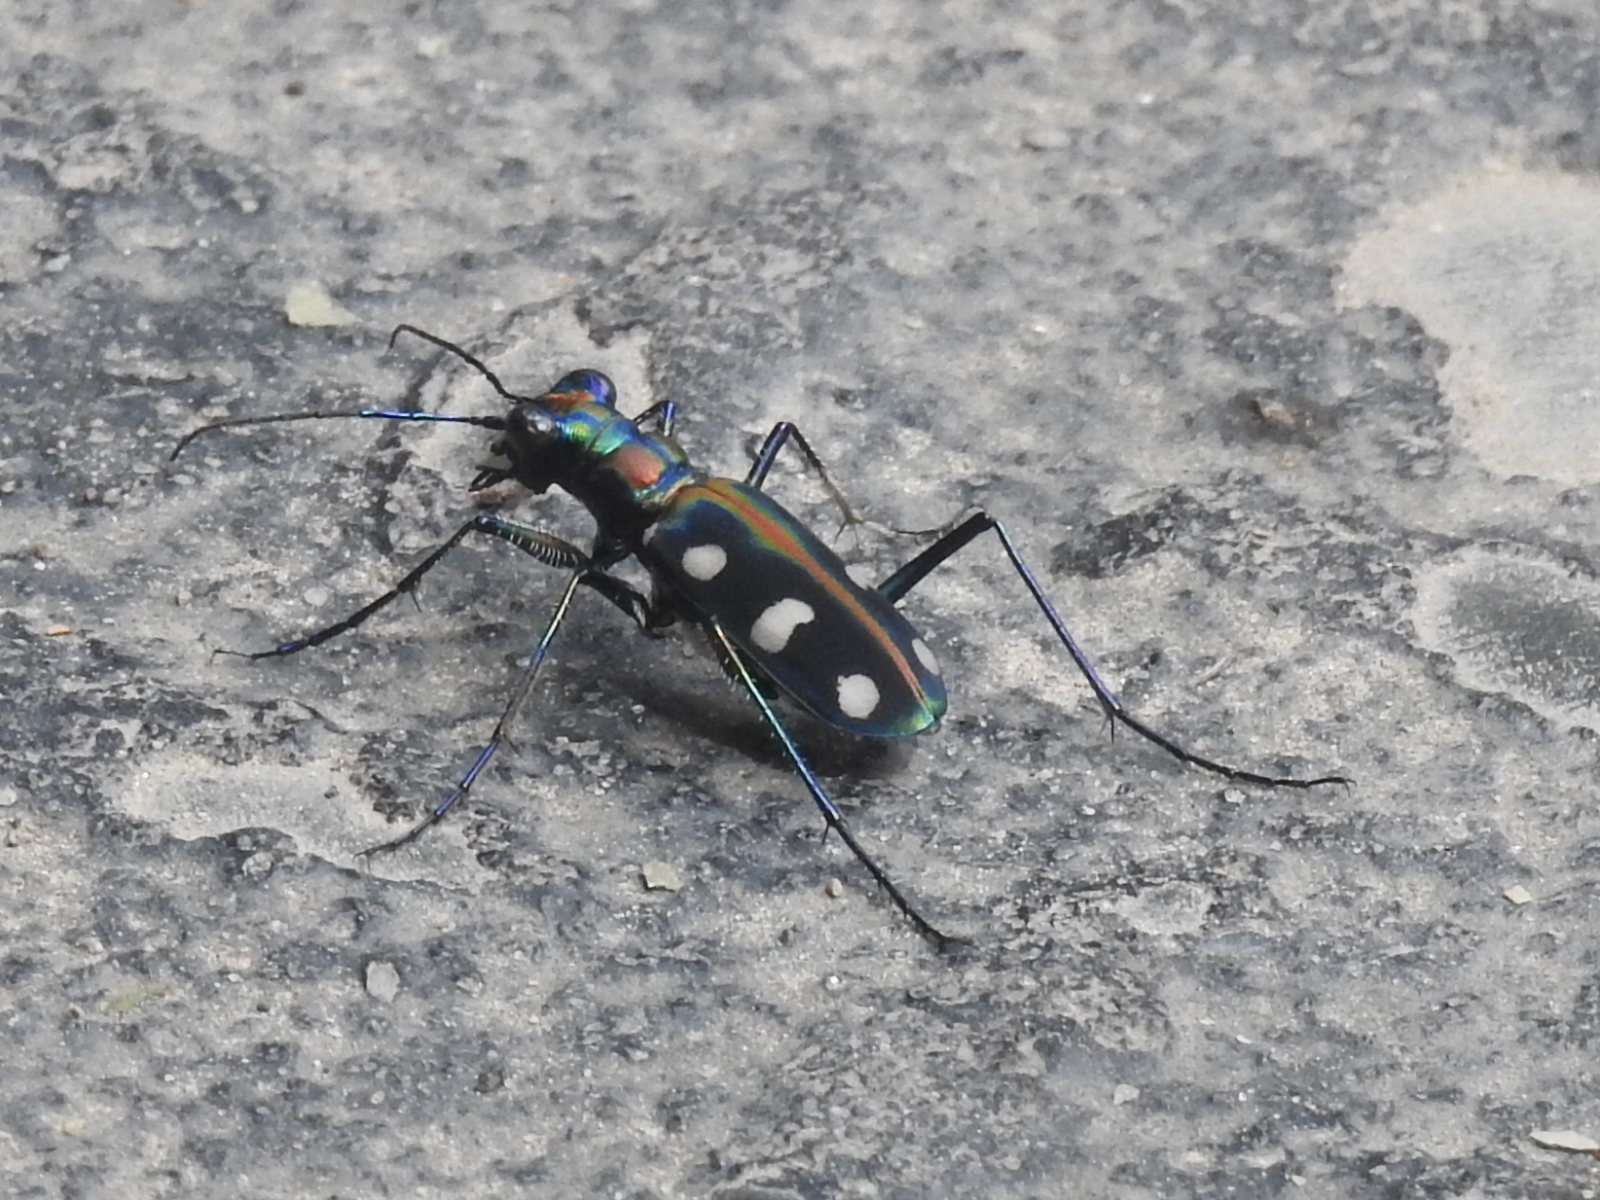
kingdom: Animalia
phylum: Arthropoda
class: Insecta
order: Coleoptera
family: Carabidae
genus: Cicindela
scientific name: Cicindela aurulenta
